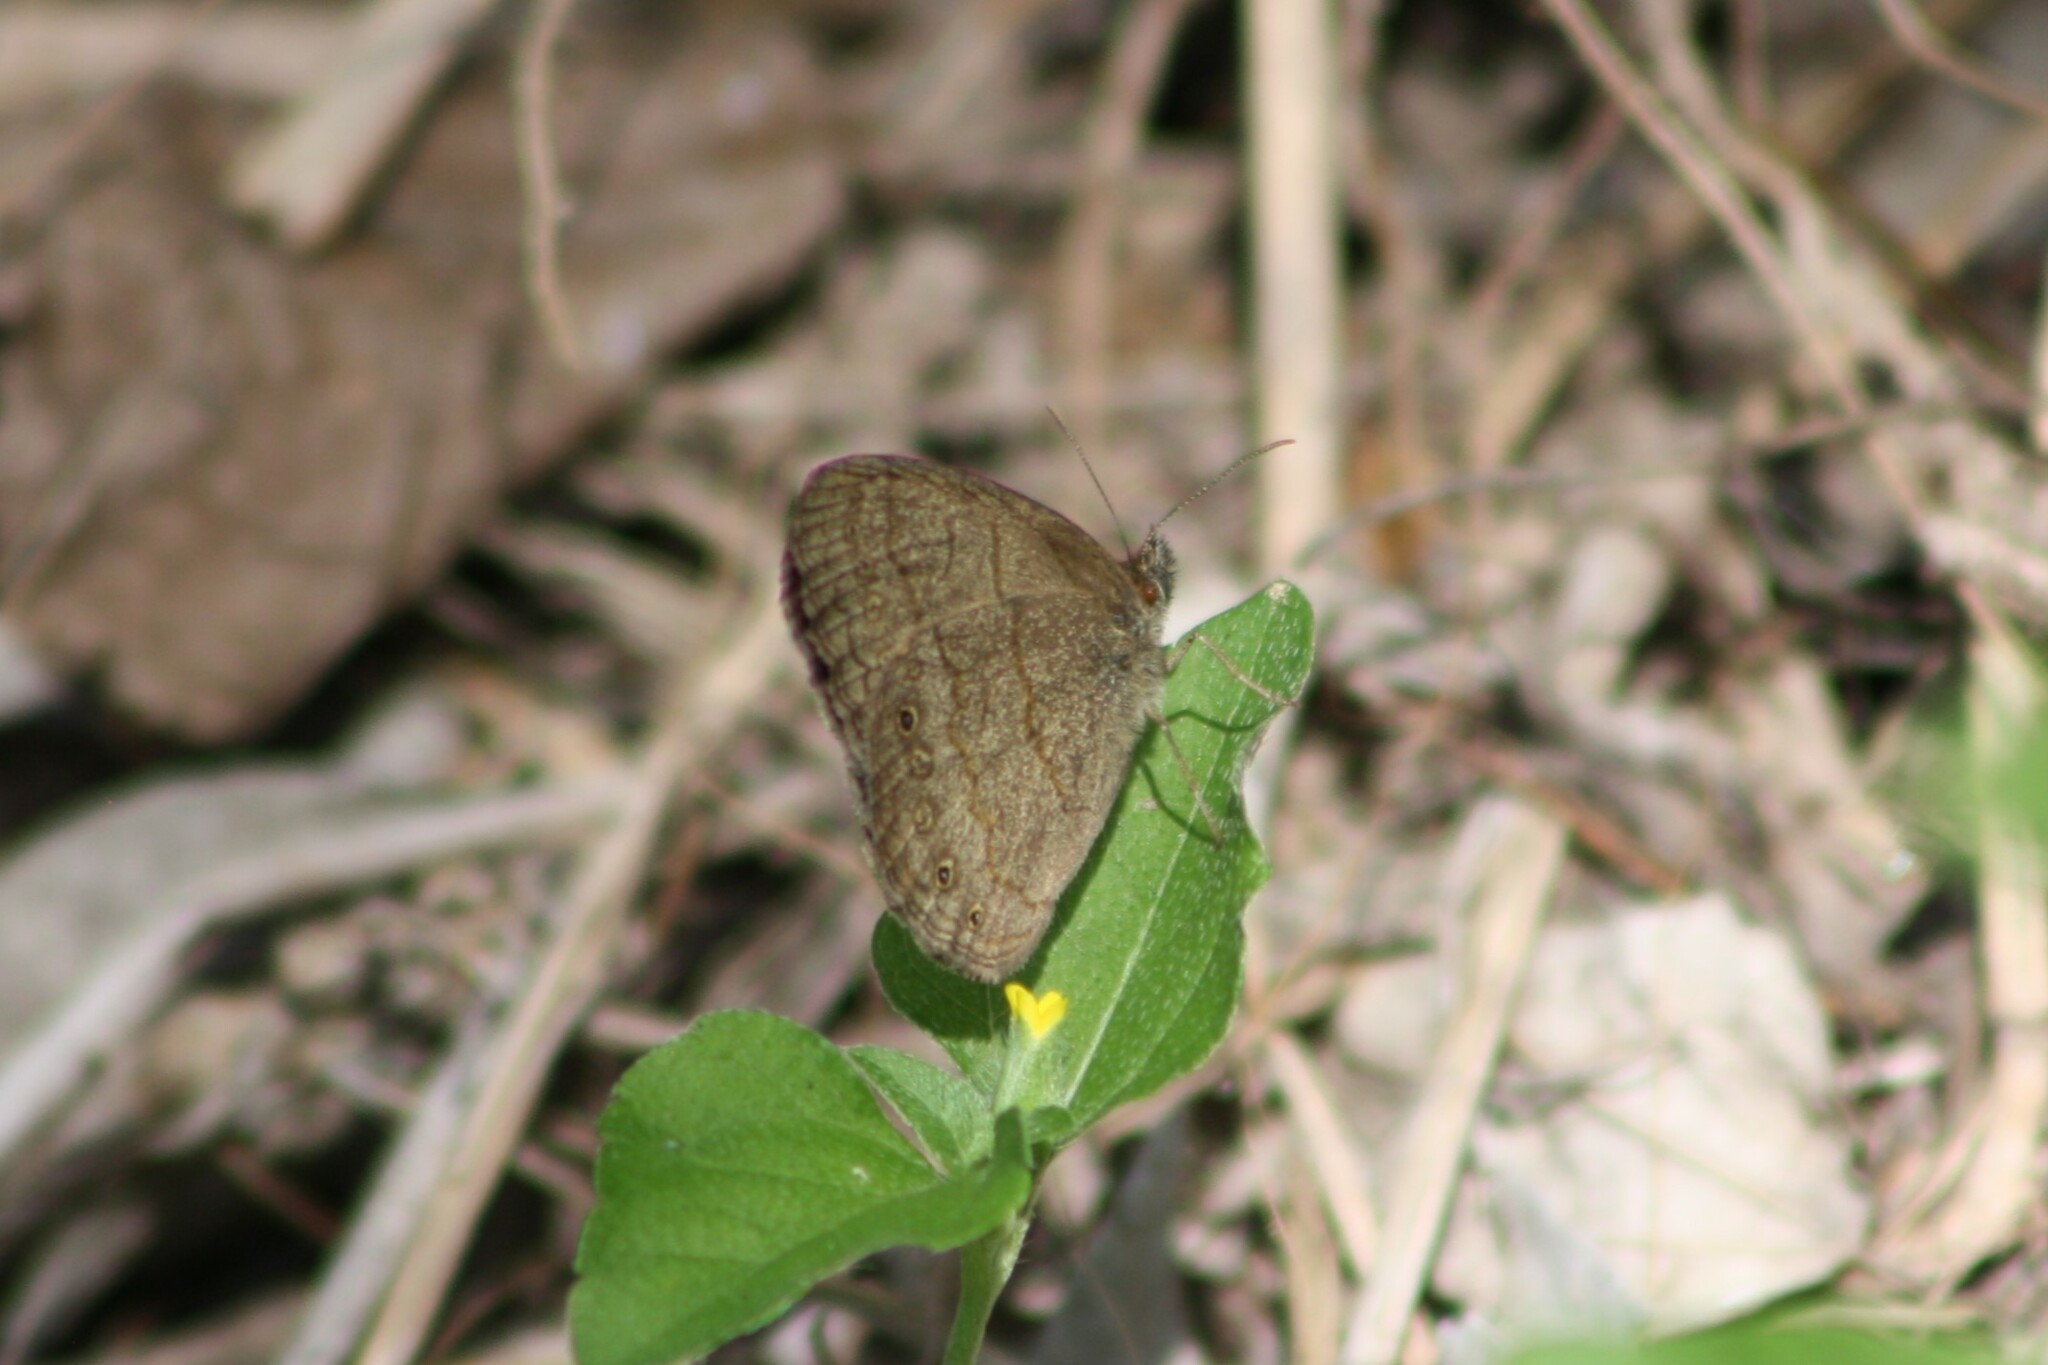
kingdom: Animalia
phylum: Arthropoda
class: Insecta
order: Lepidoptera
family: Nymphalidae
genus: Hermeuptychia
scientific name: Hermeuptychia hermybius
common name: South texas satyr
